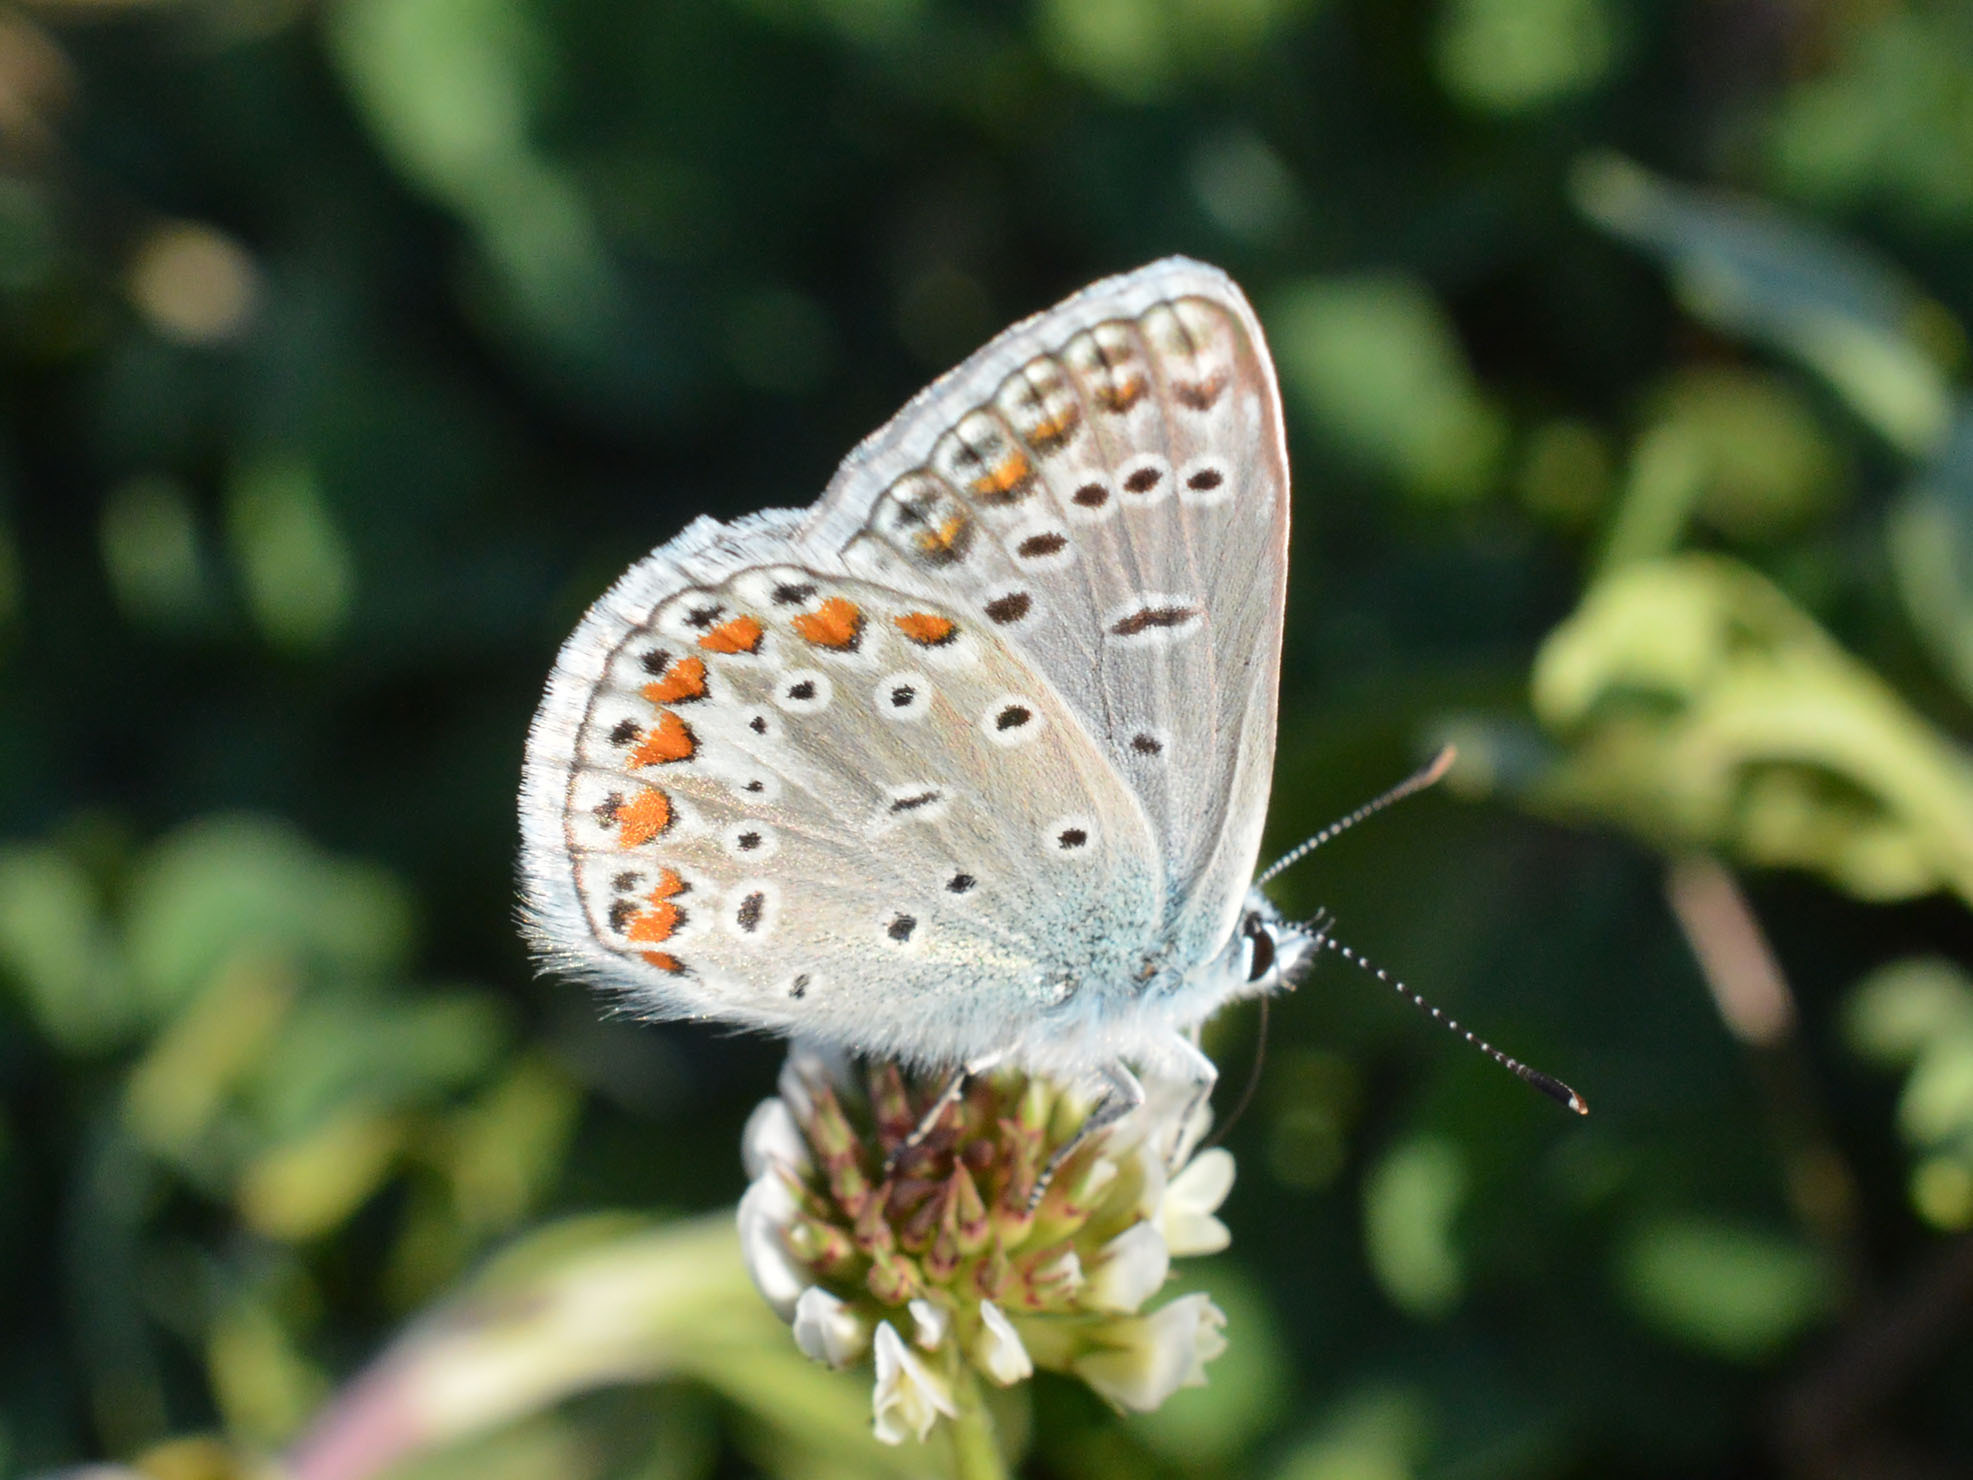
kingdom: Animalia
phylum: Arthropoda
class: Insecta
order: Lepidoptera
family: Lycaenidae
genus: Polyommatus
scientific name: Polyommatus icarus
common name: Common blue
